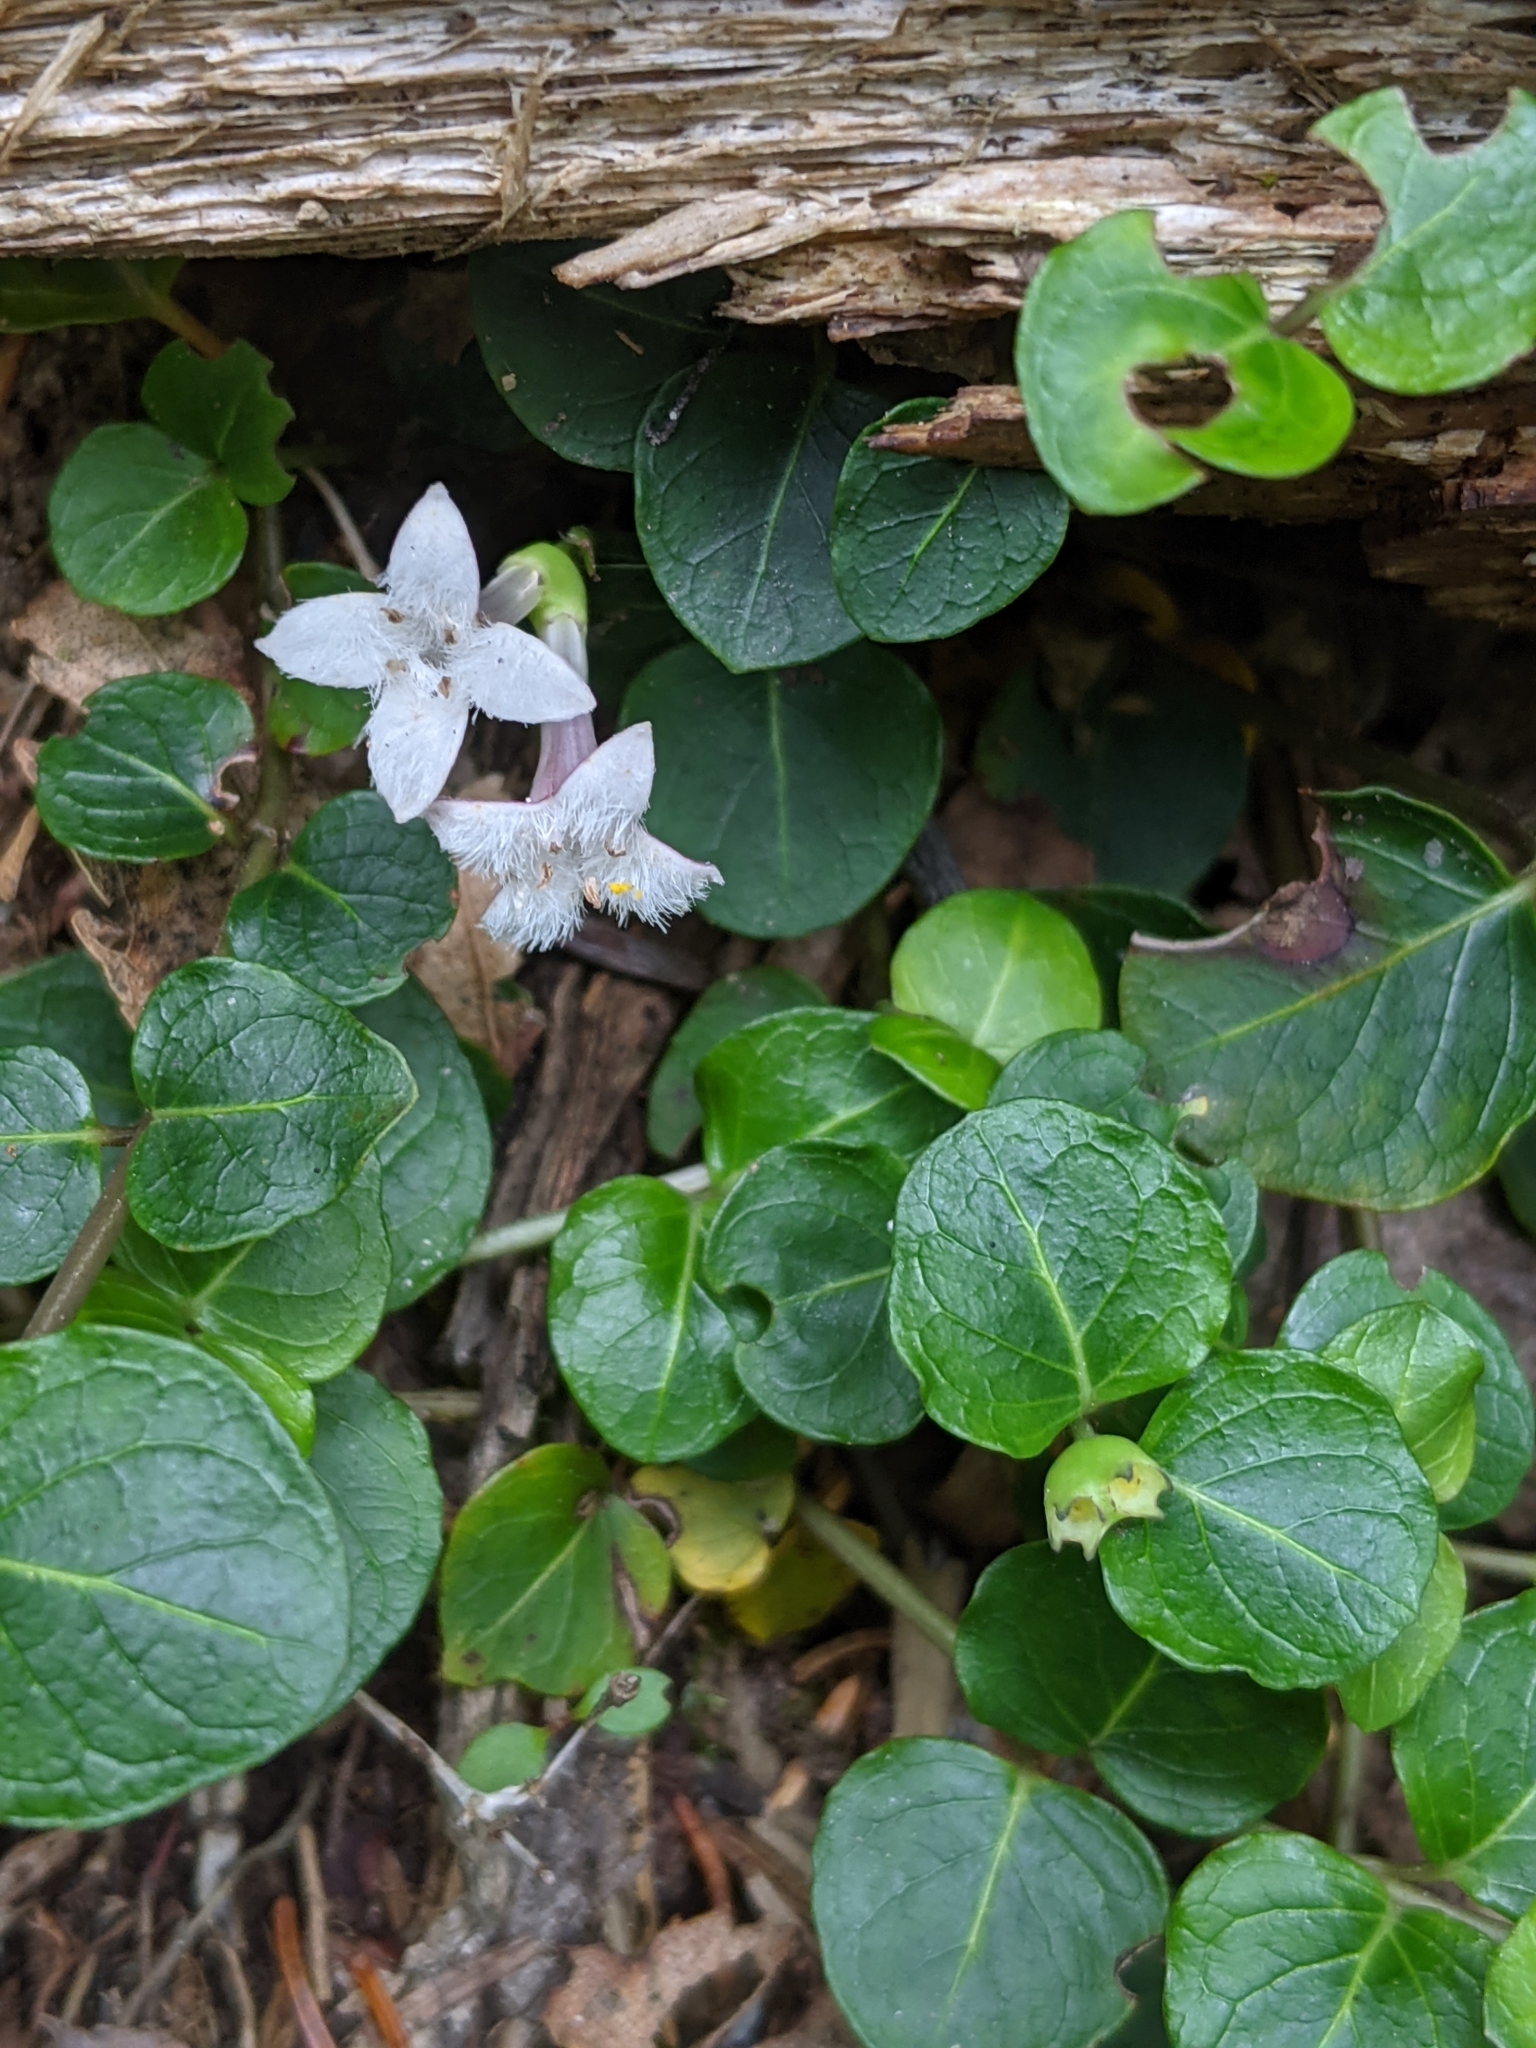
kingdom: Plantae
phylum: Tracheophyta
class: Magnoliopsida
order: Gentianales
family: Rubiaceae
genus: Mitchella
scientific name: Mitchella repens
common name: Partridge-berry
